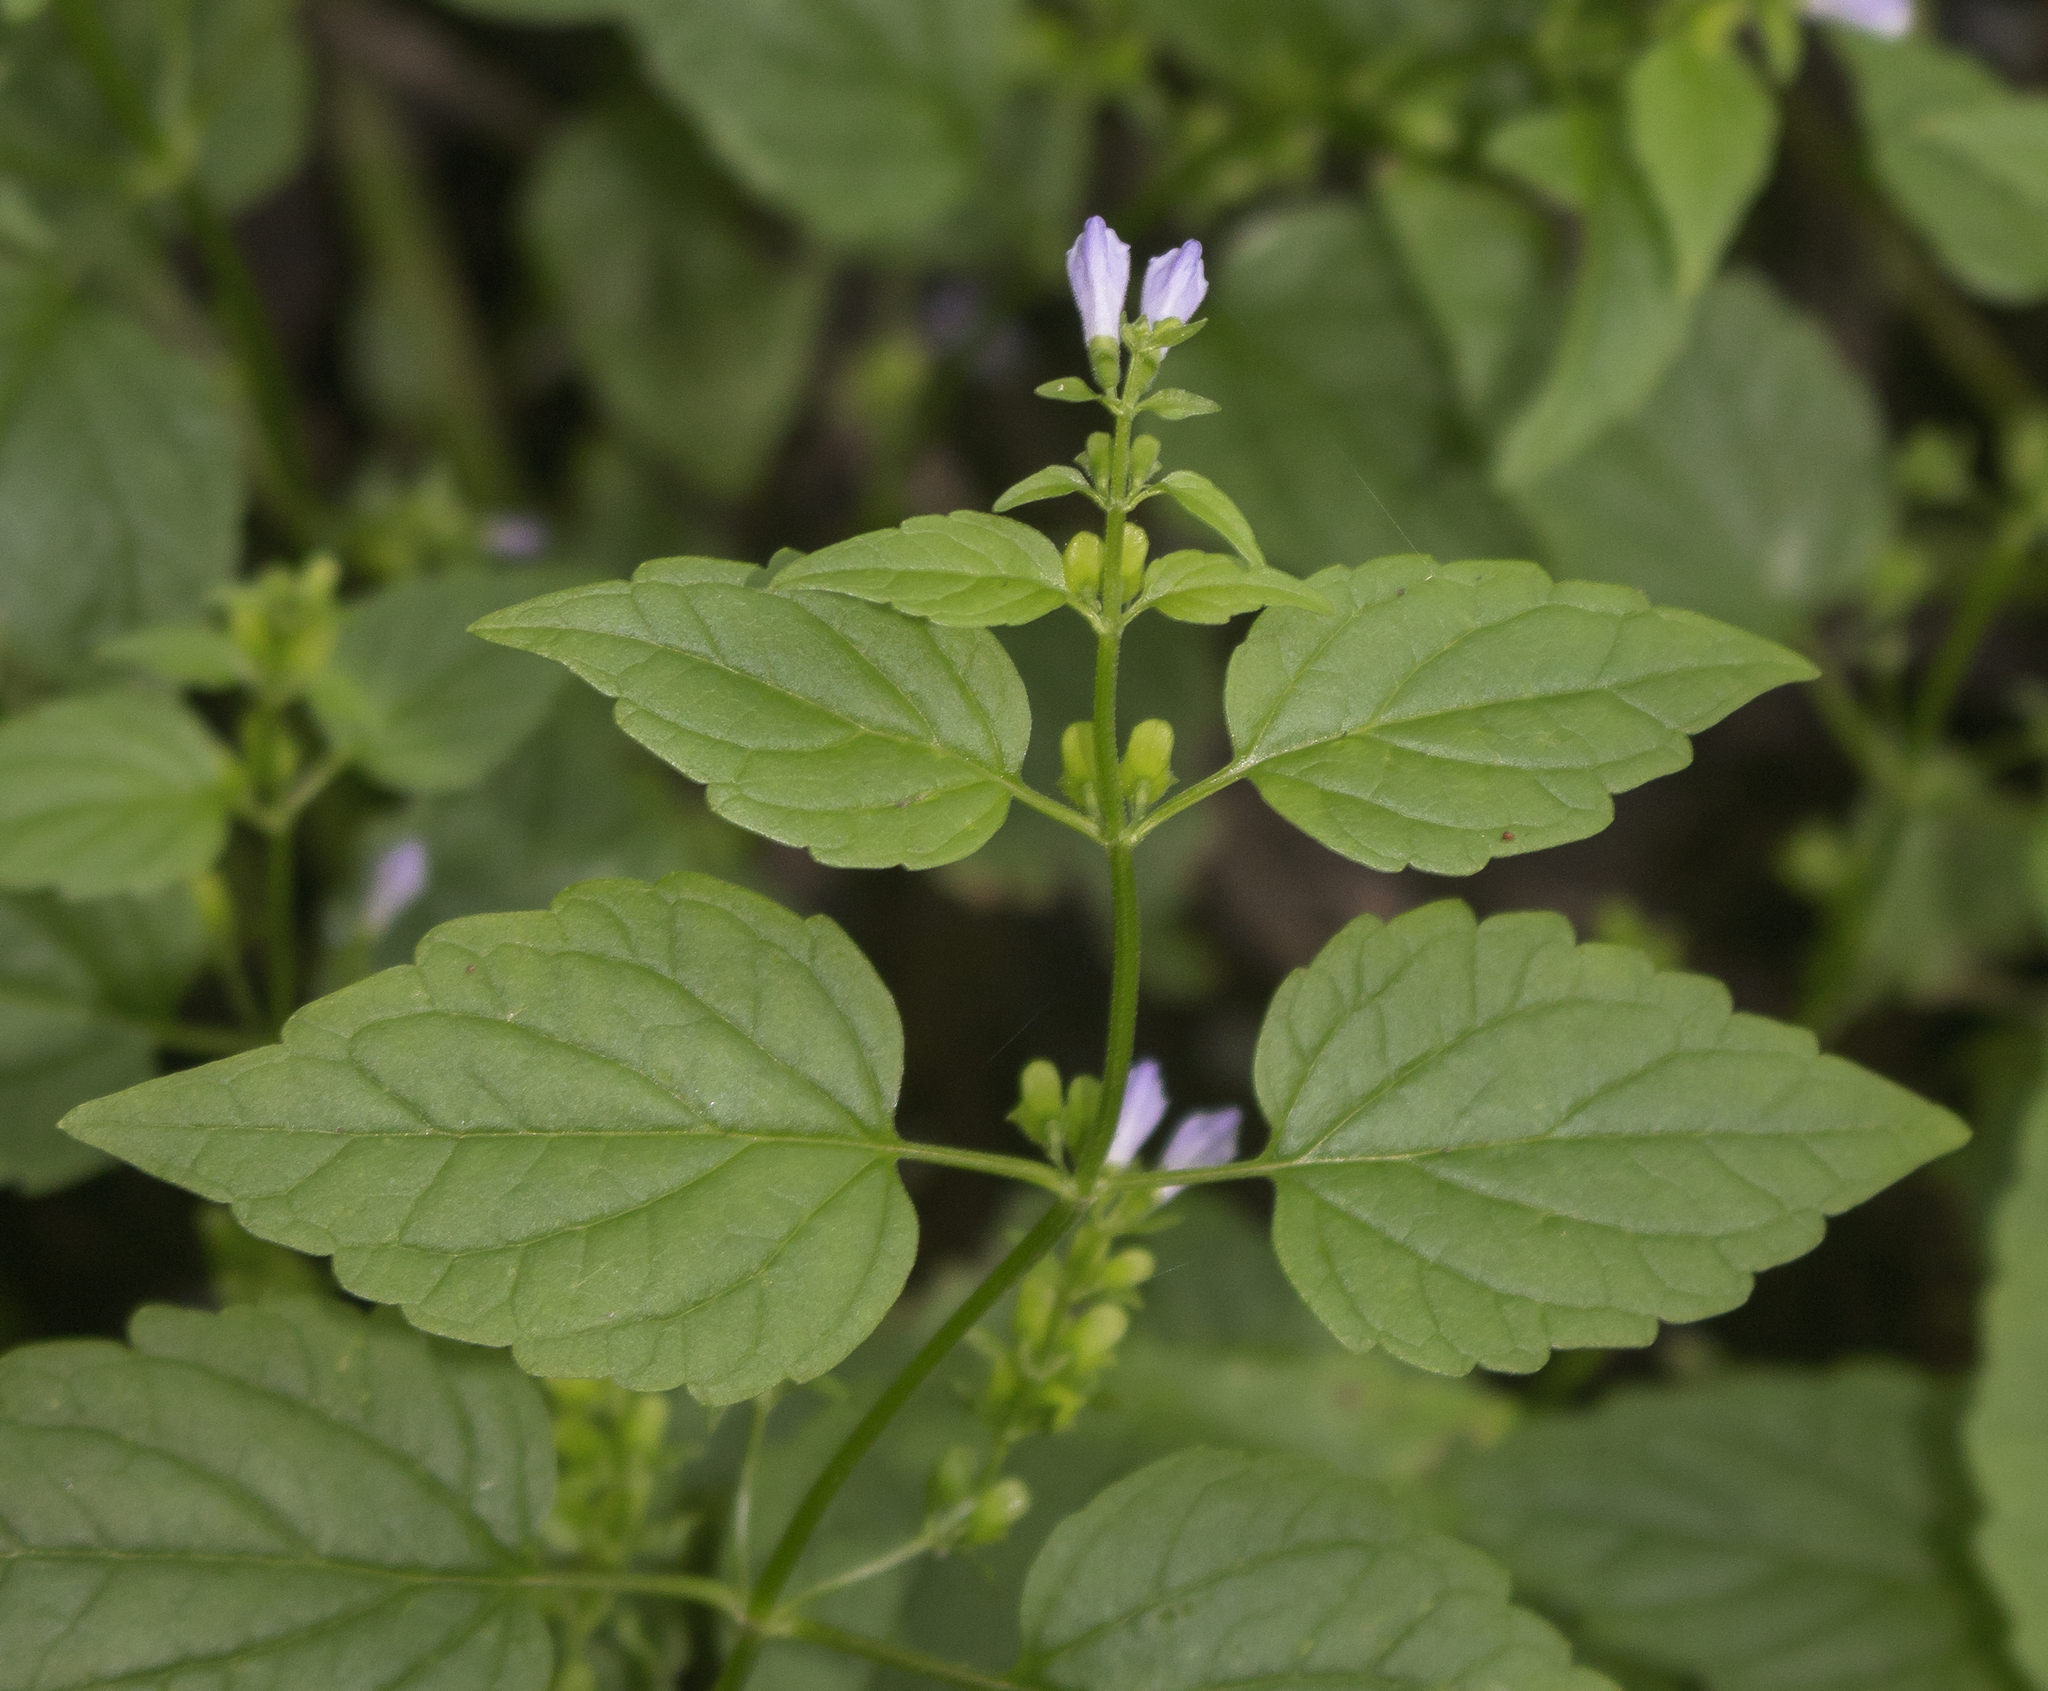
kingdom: Plantae
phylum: Tracheophyta
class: Magnoliopsida
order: Lamiales
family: Lamiaceae
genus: Scutellaria
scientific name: Scutellaria lateriflora
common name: Blue skullcap
